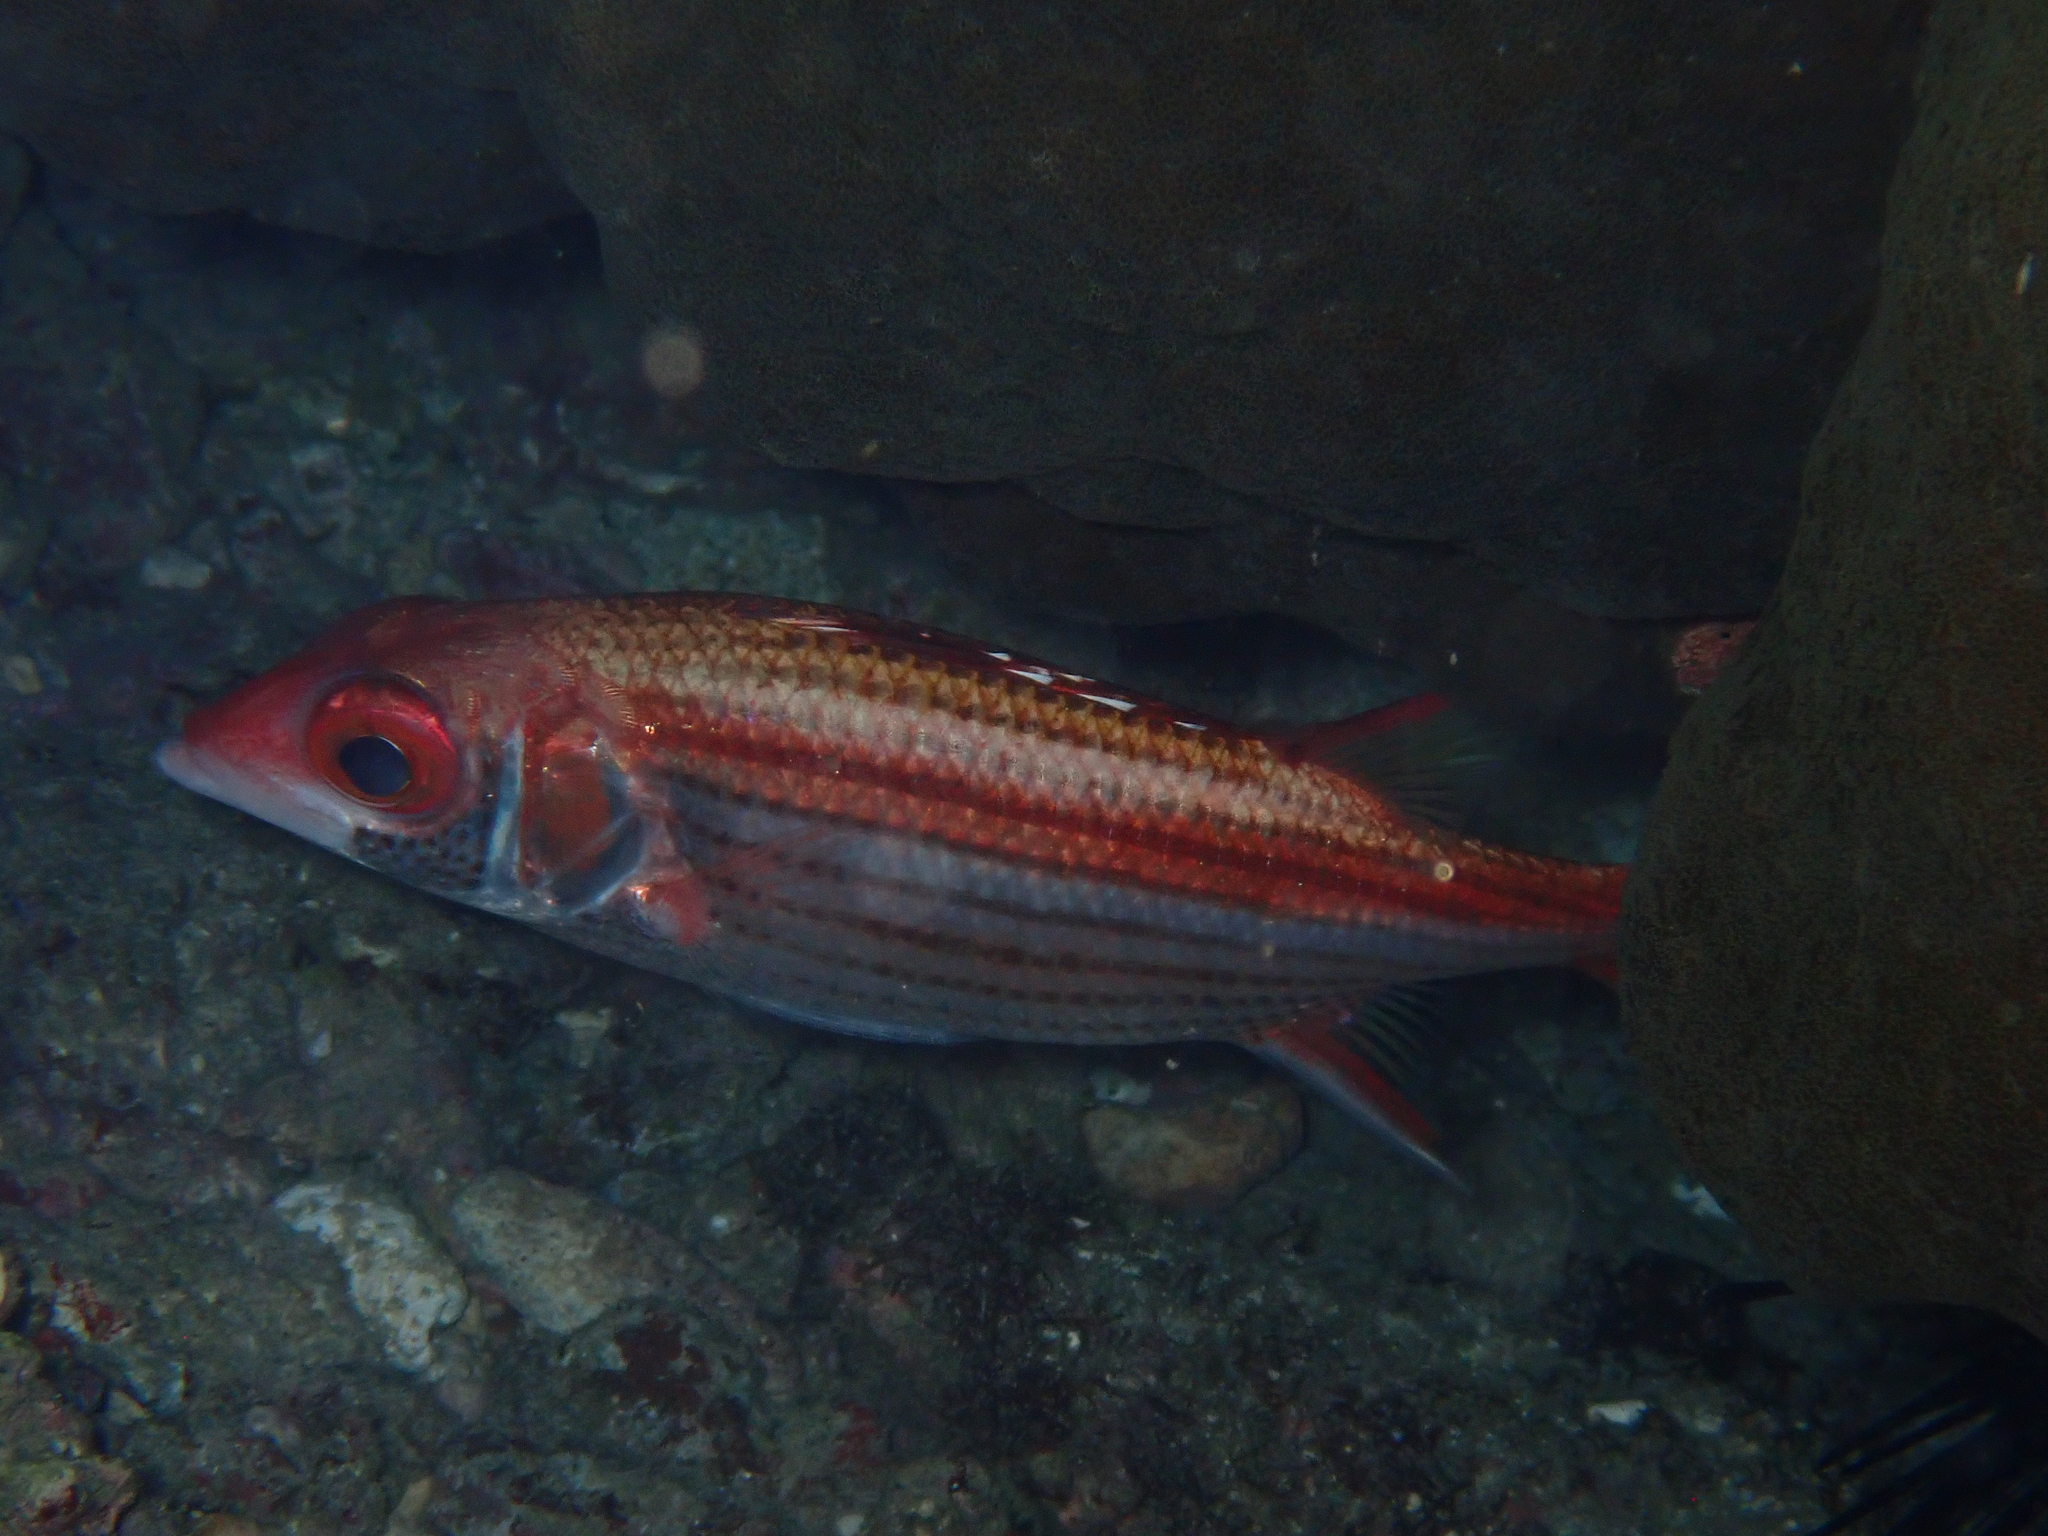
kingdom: Animalia
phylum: Chordata
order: Beryciformes
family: Holocentridae
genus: Neoniphon
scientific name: Neoniphon sammara
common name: Sammara squirrelfish
